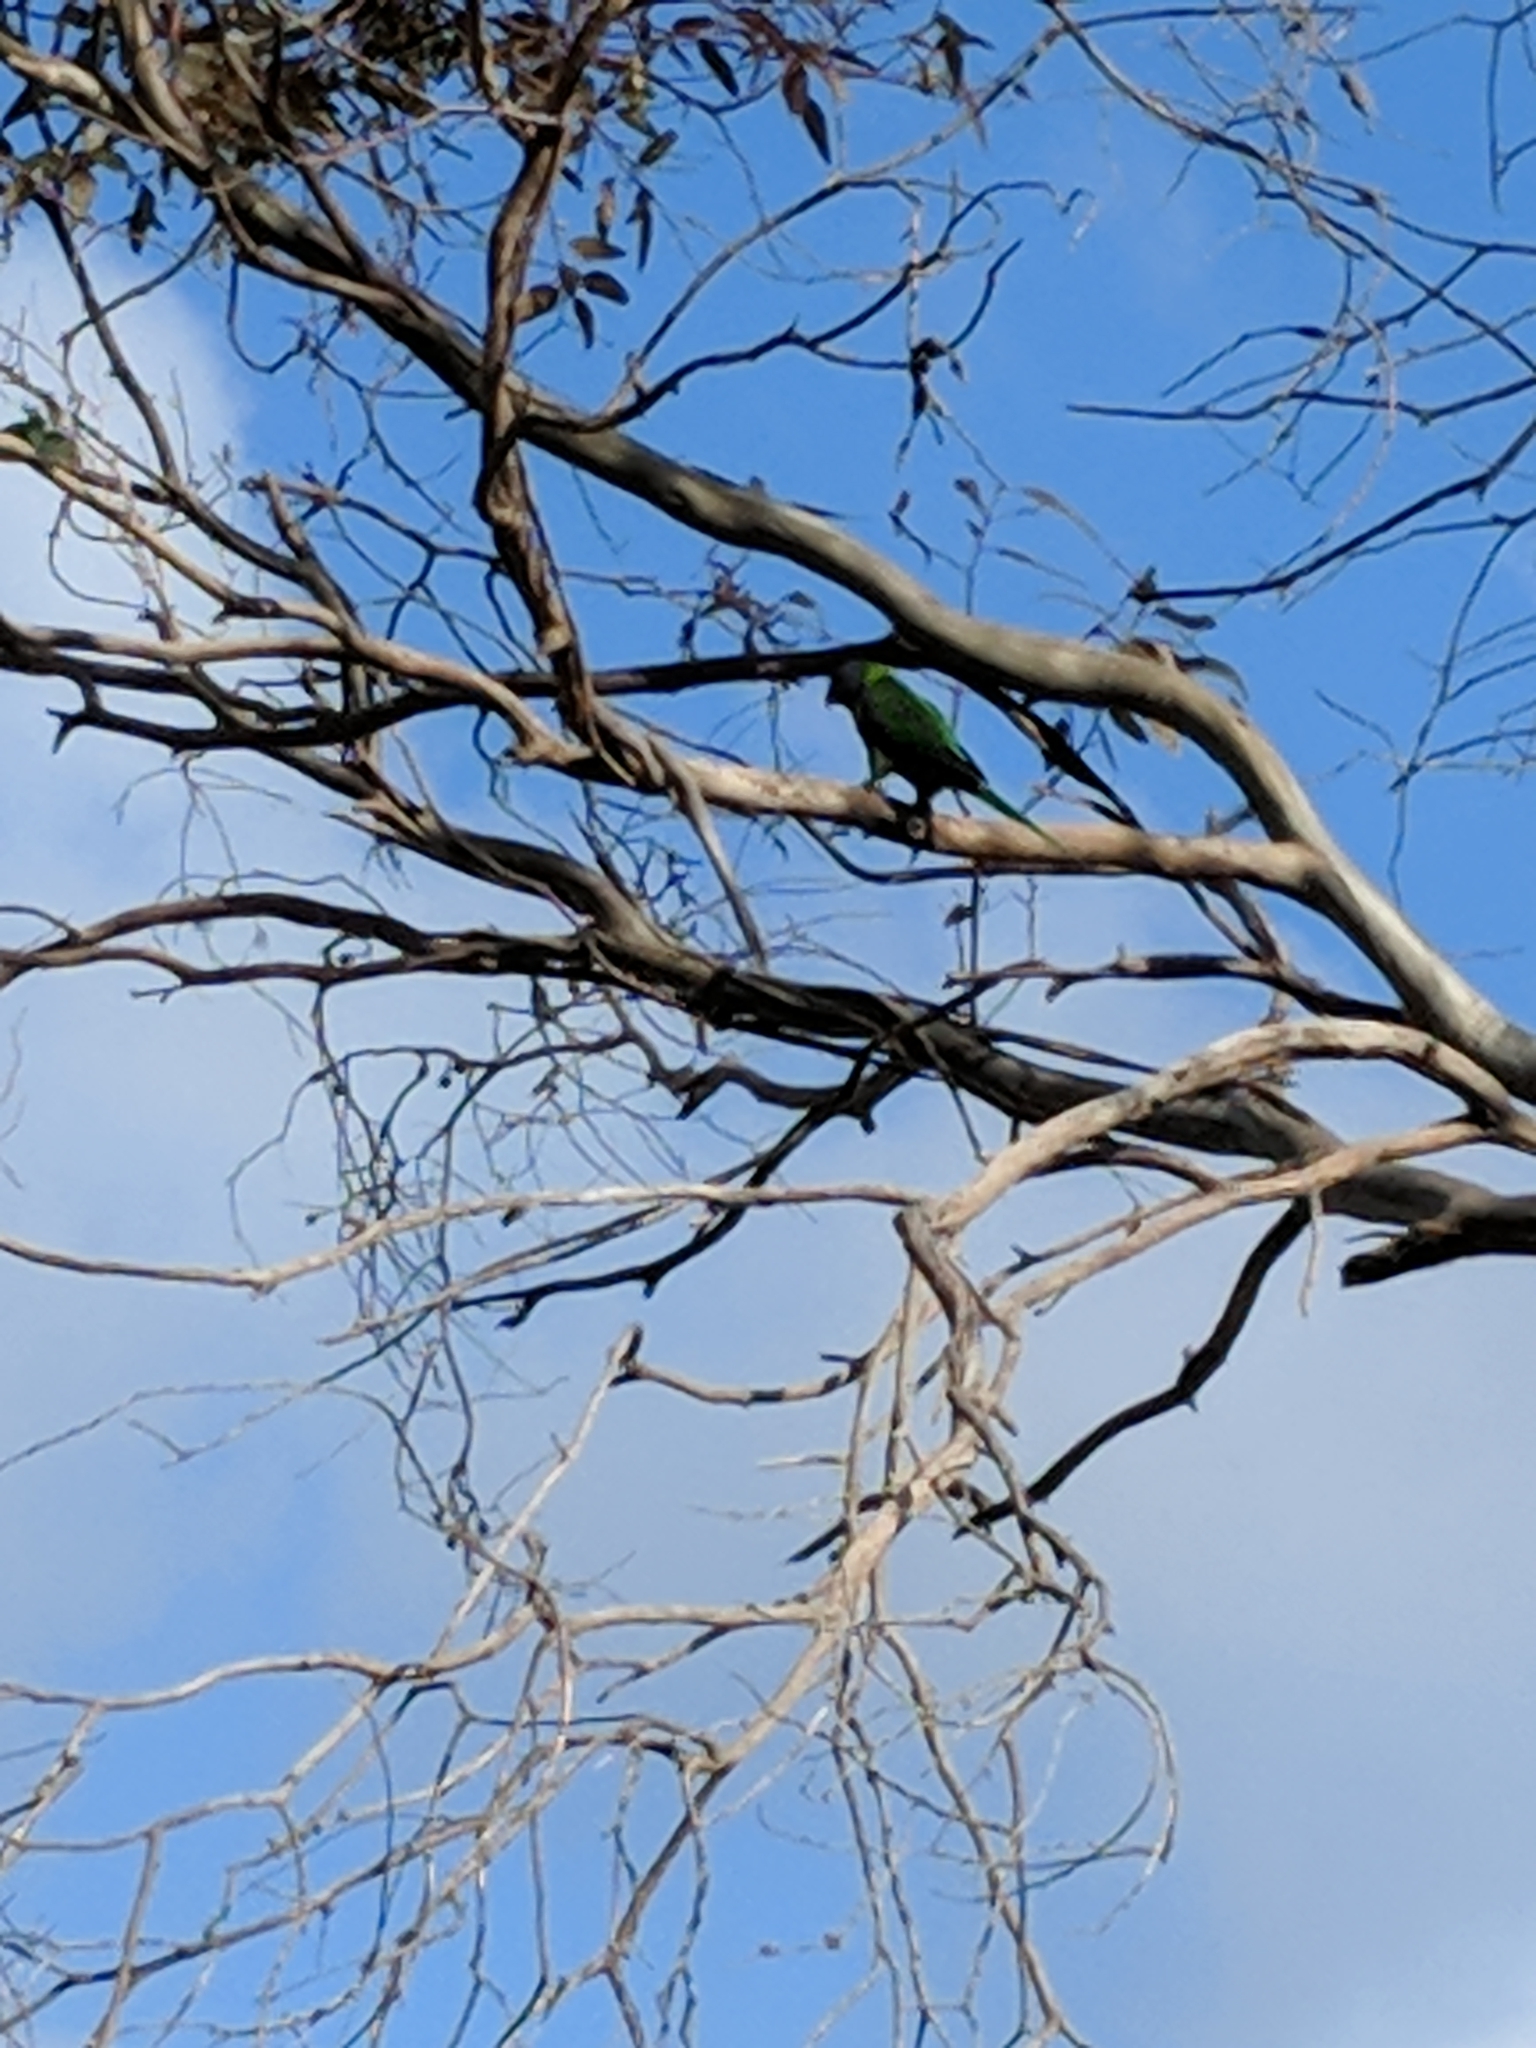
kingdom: Animalia
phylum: Chordata
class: Aves
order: Psittaciformes
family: Psittacidae
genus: Trichoglossus
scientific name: Trichoglossus haematodus
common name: Coconut lorikeet
